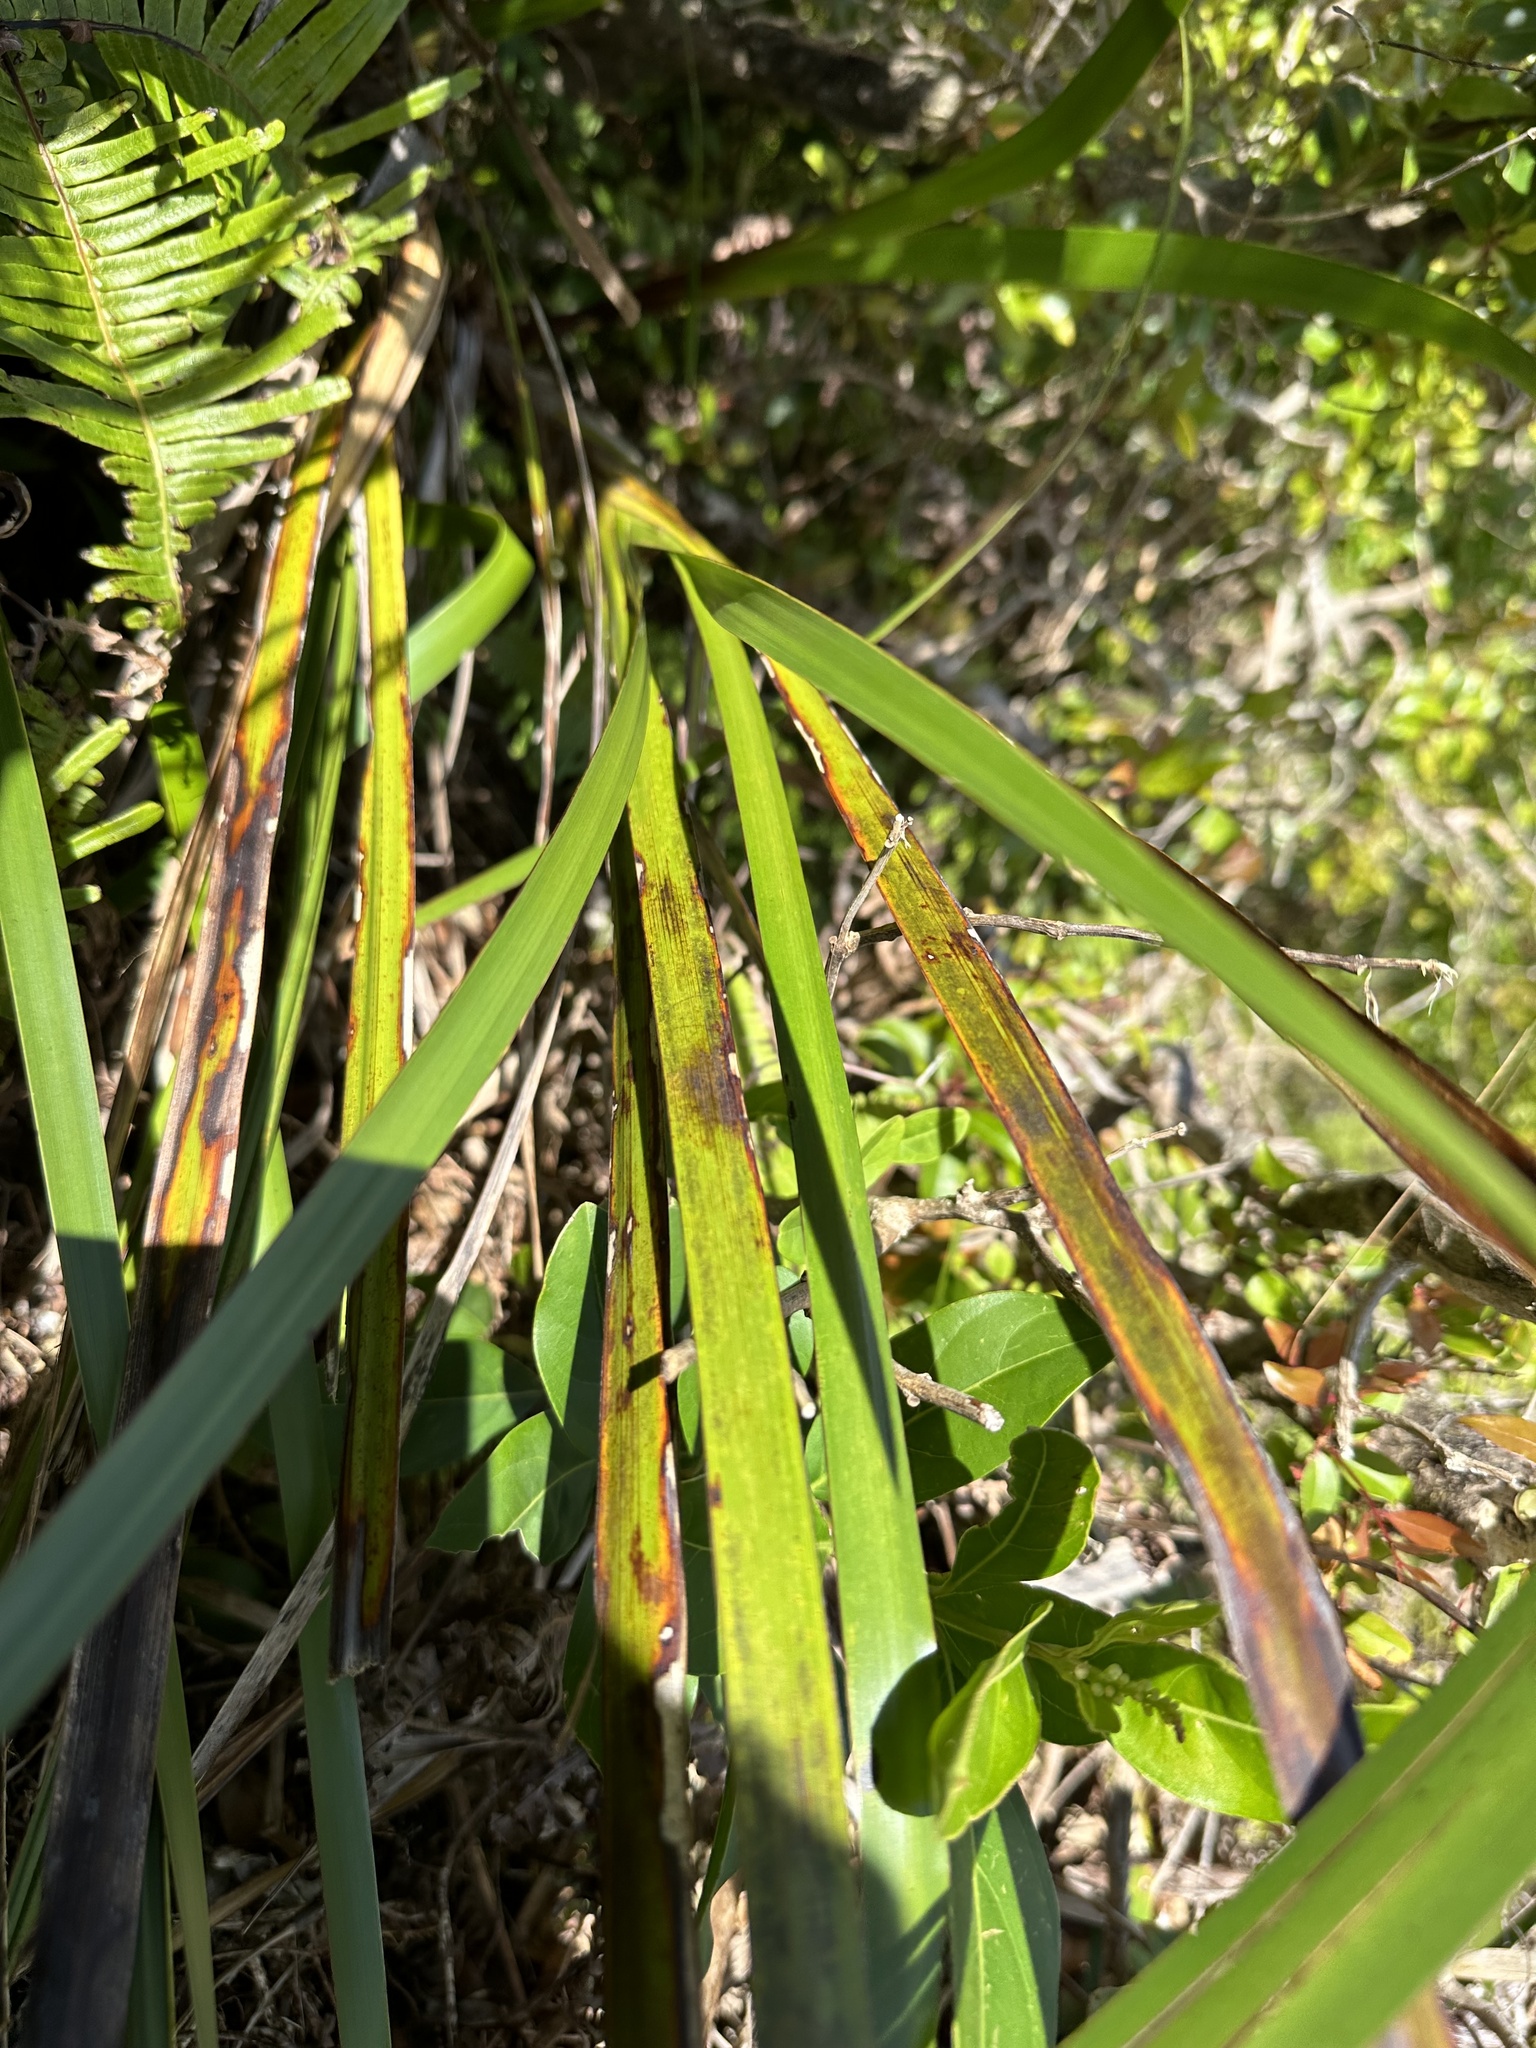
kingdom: Plantae
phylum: Tracheophyta
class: Liliopsida
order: Asparagales
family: Asphodelaceae
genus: Dianella
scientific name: Dianella sandwicensis
